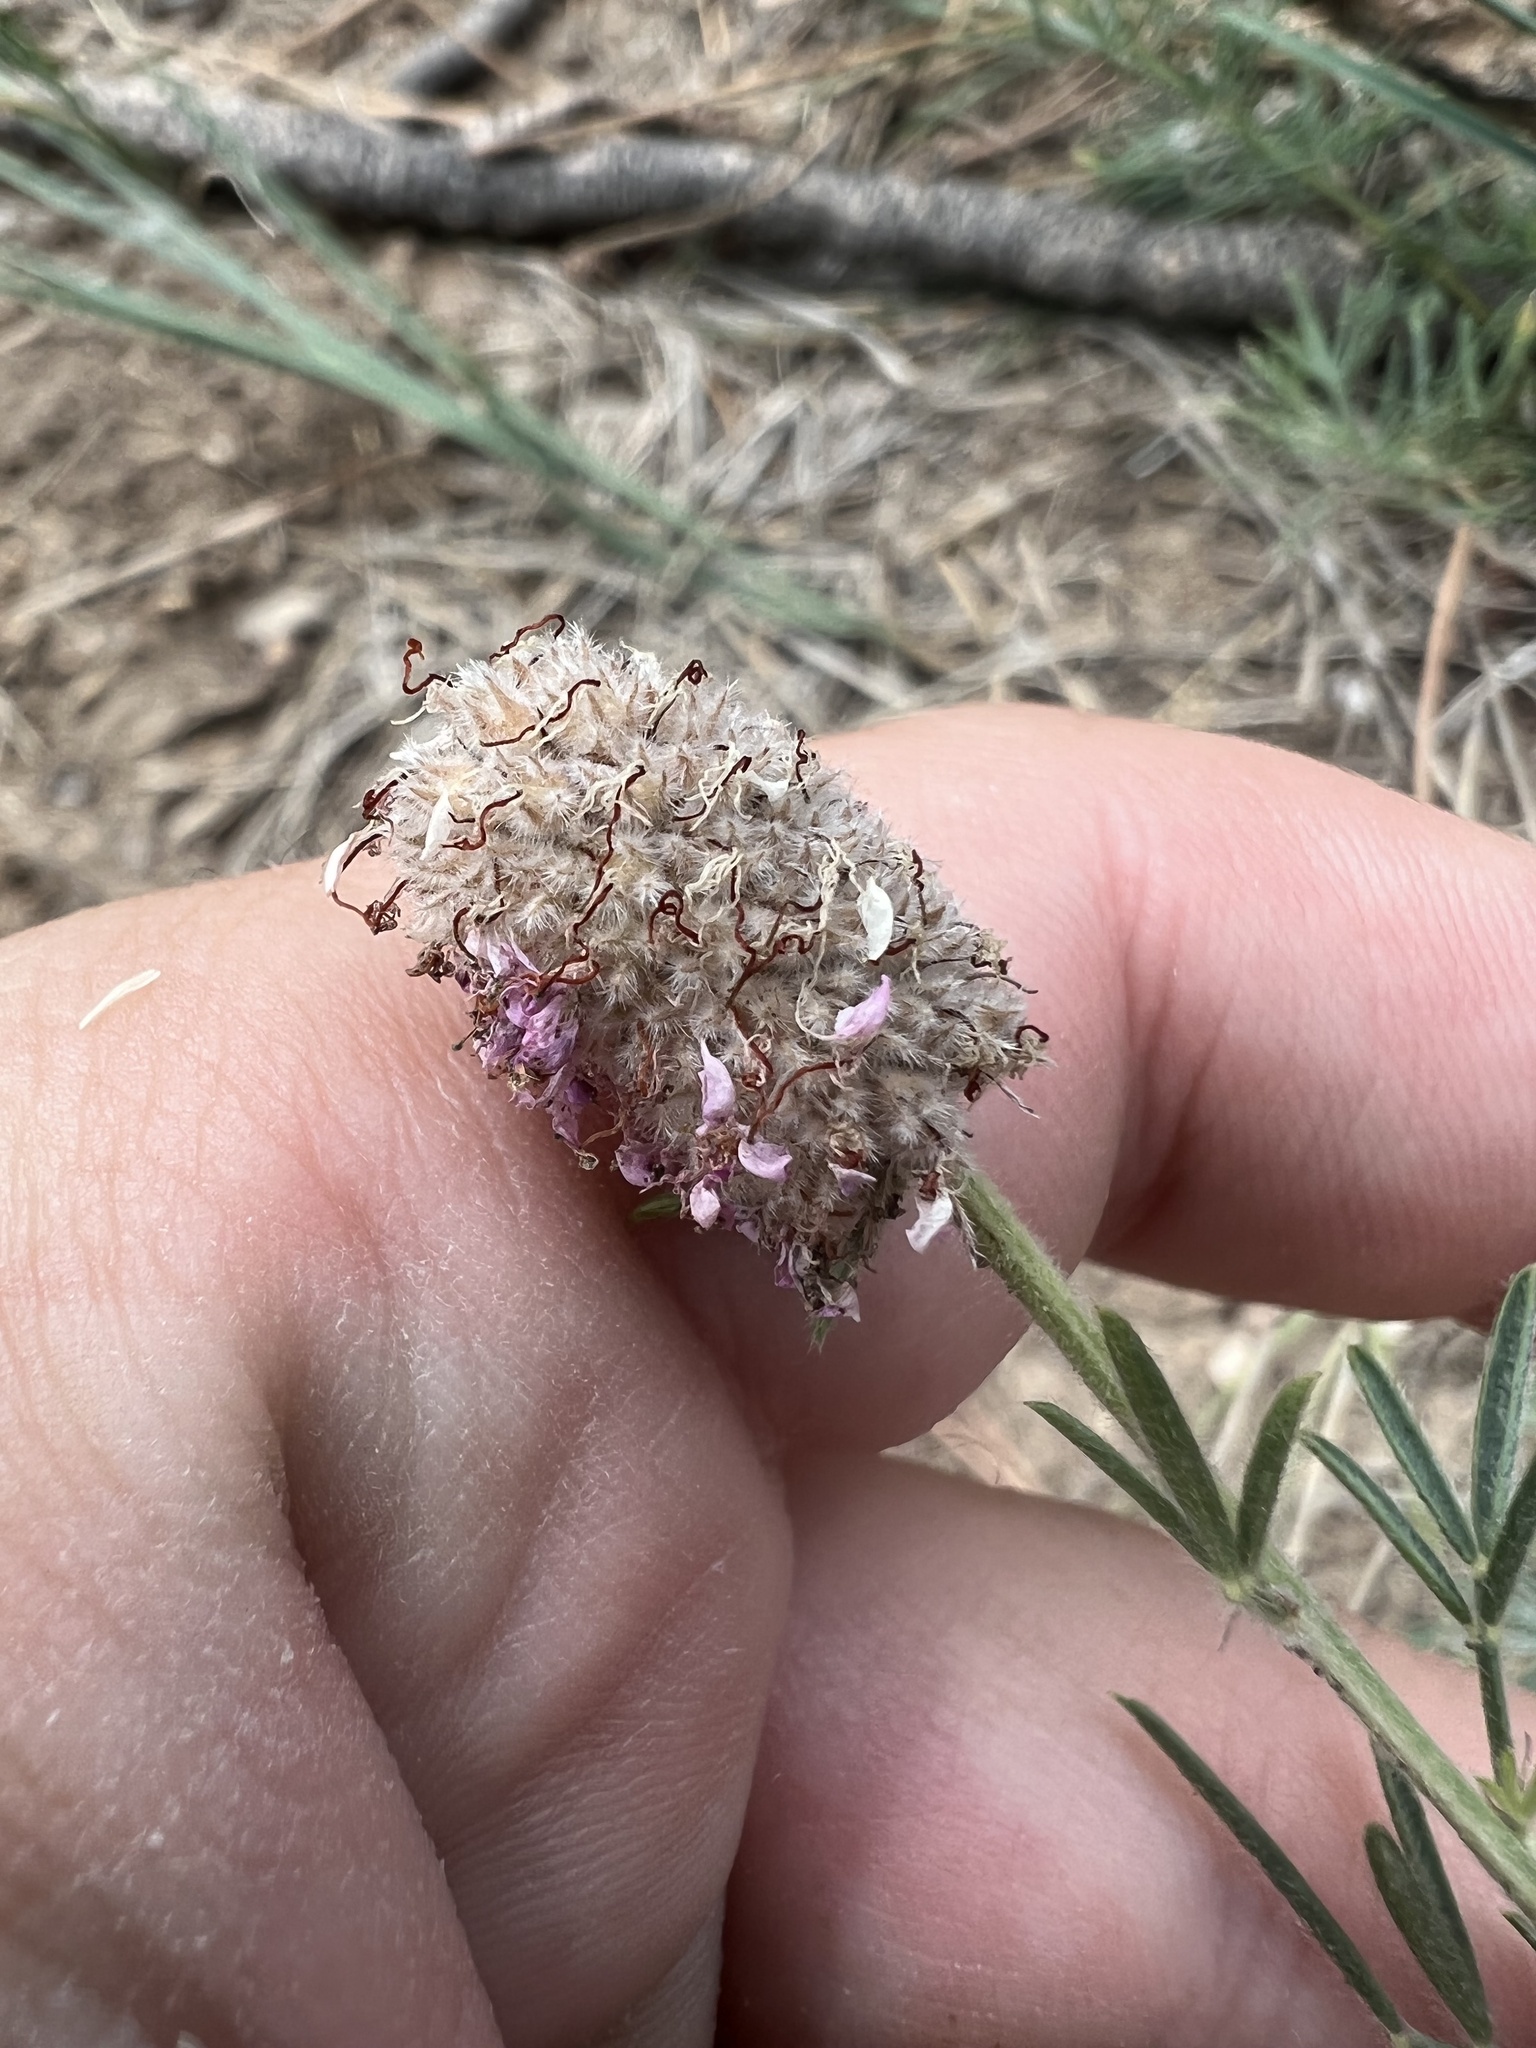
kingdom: Plantae
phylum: Tracheophyta
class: Magnoliopsida
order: Fabales
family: Fabaceae
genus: Dalea
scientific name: Dalea purpurea
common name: Purple prairie-clover
